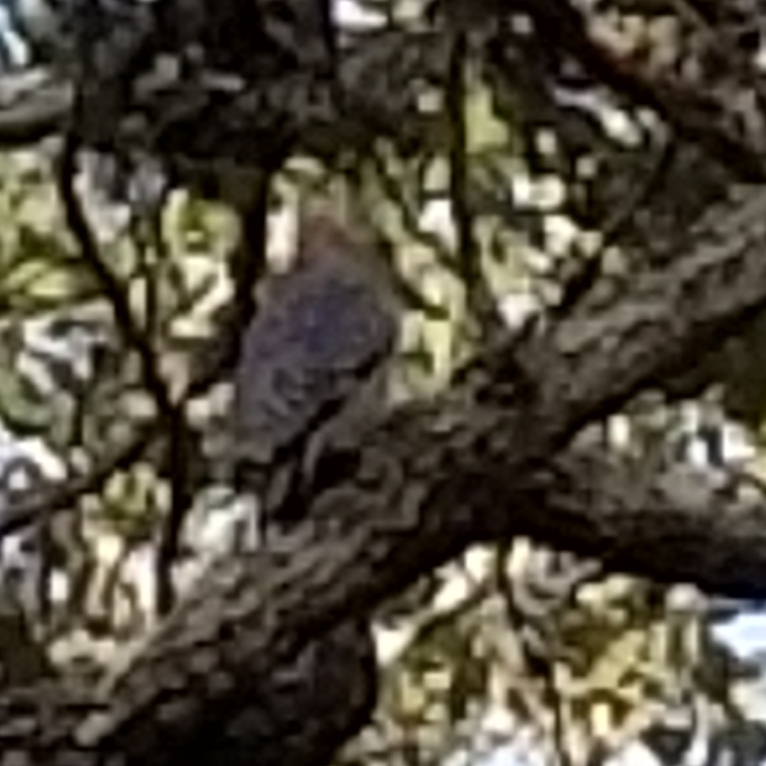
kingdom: Animalia
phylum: Chordata
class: Aves
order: Piciformes
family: Picidae
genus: Melanerpes
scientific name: Melanerpes aurifrons
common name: Golden-fronted woodpecker
